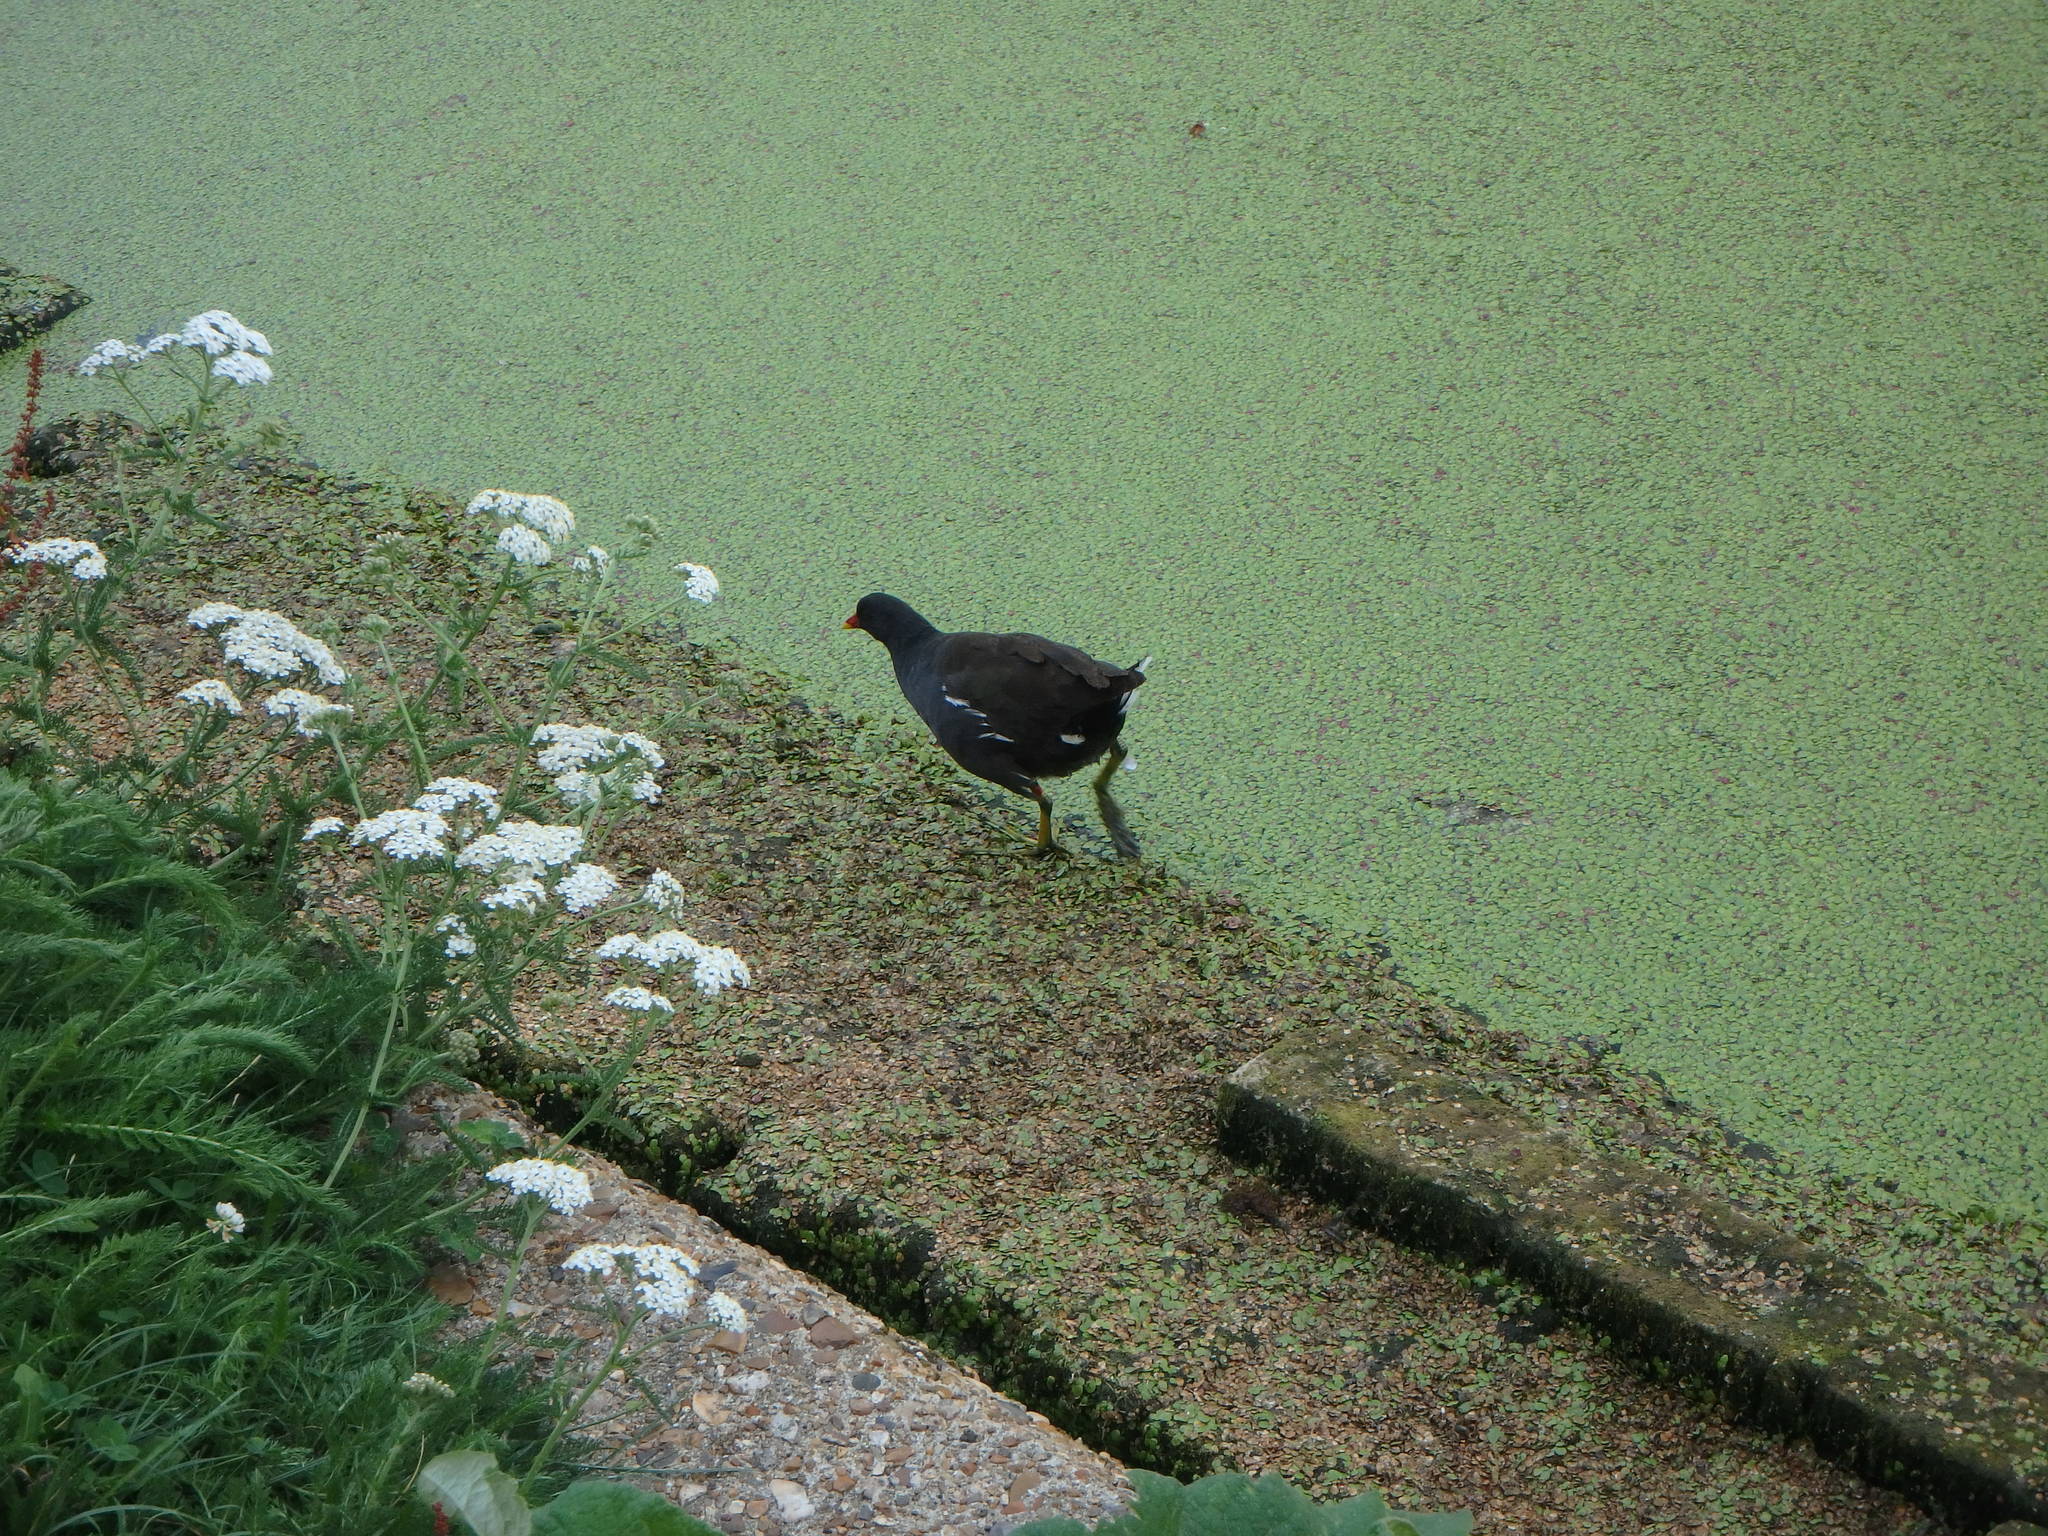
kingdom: Animalia
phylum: Chordata
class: Aves
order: Gruiformes
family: Rallidae
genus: Gallinula
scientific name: Gallinula chloropus
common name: Common moorhen
